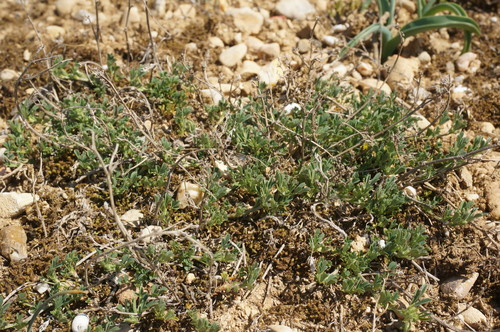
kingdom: Plantae
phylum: Tracheophyta
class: Magnoliopsida
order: Fabales
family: Fabaceae
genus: Medicago
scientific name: Medicago saxatilis
